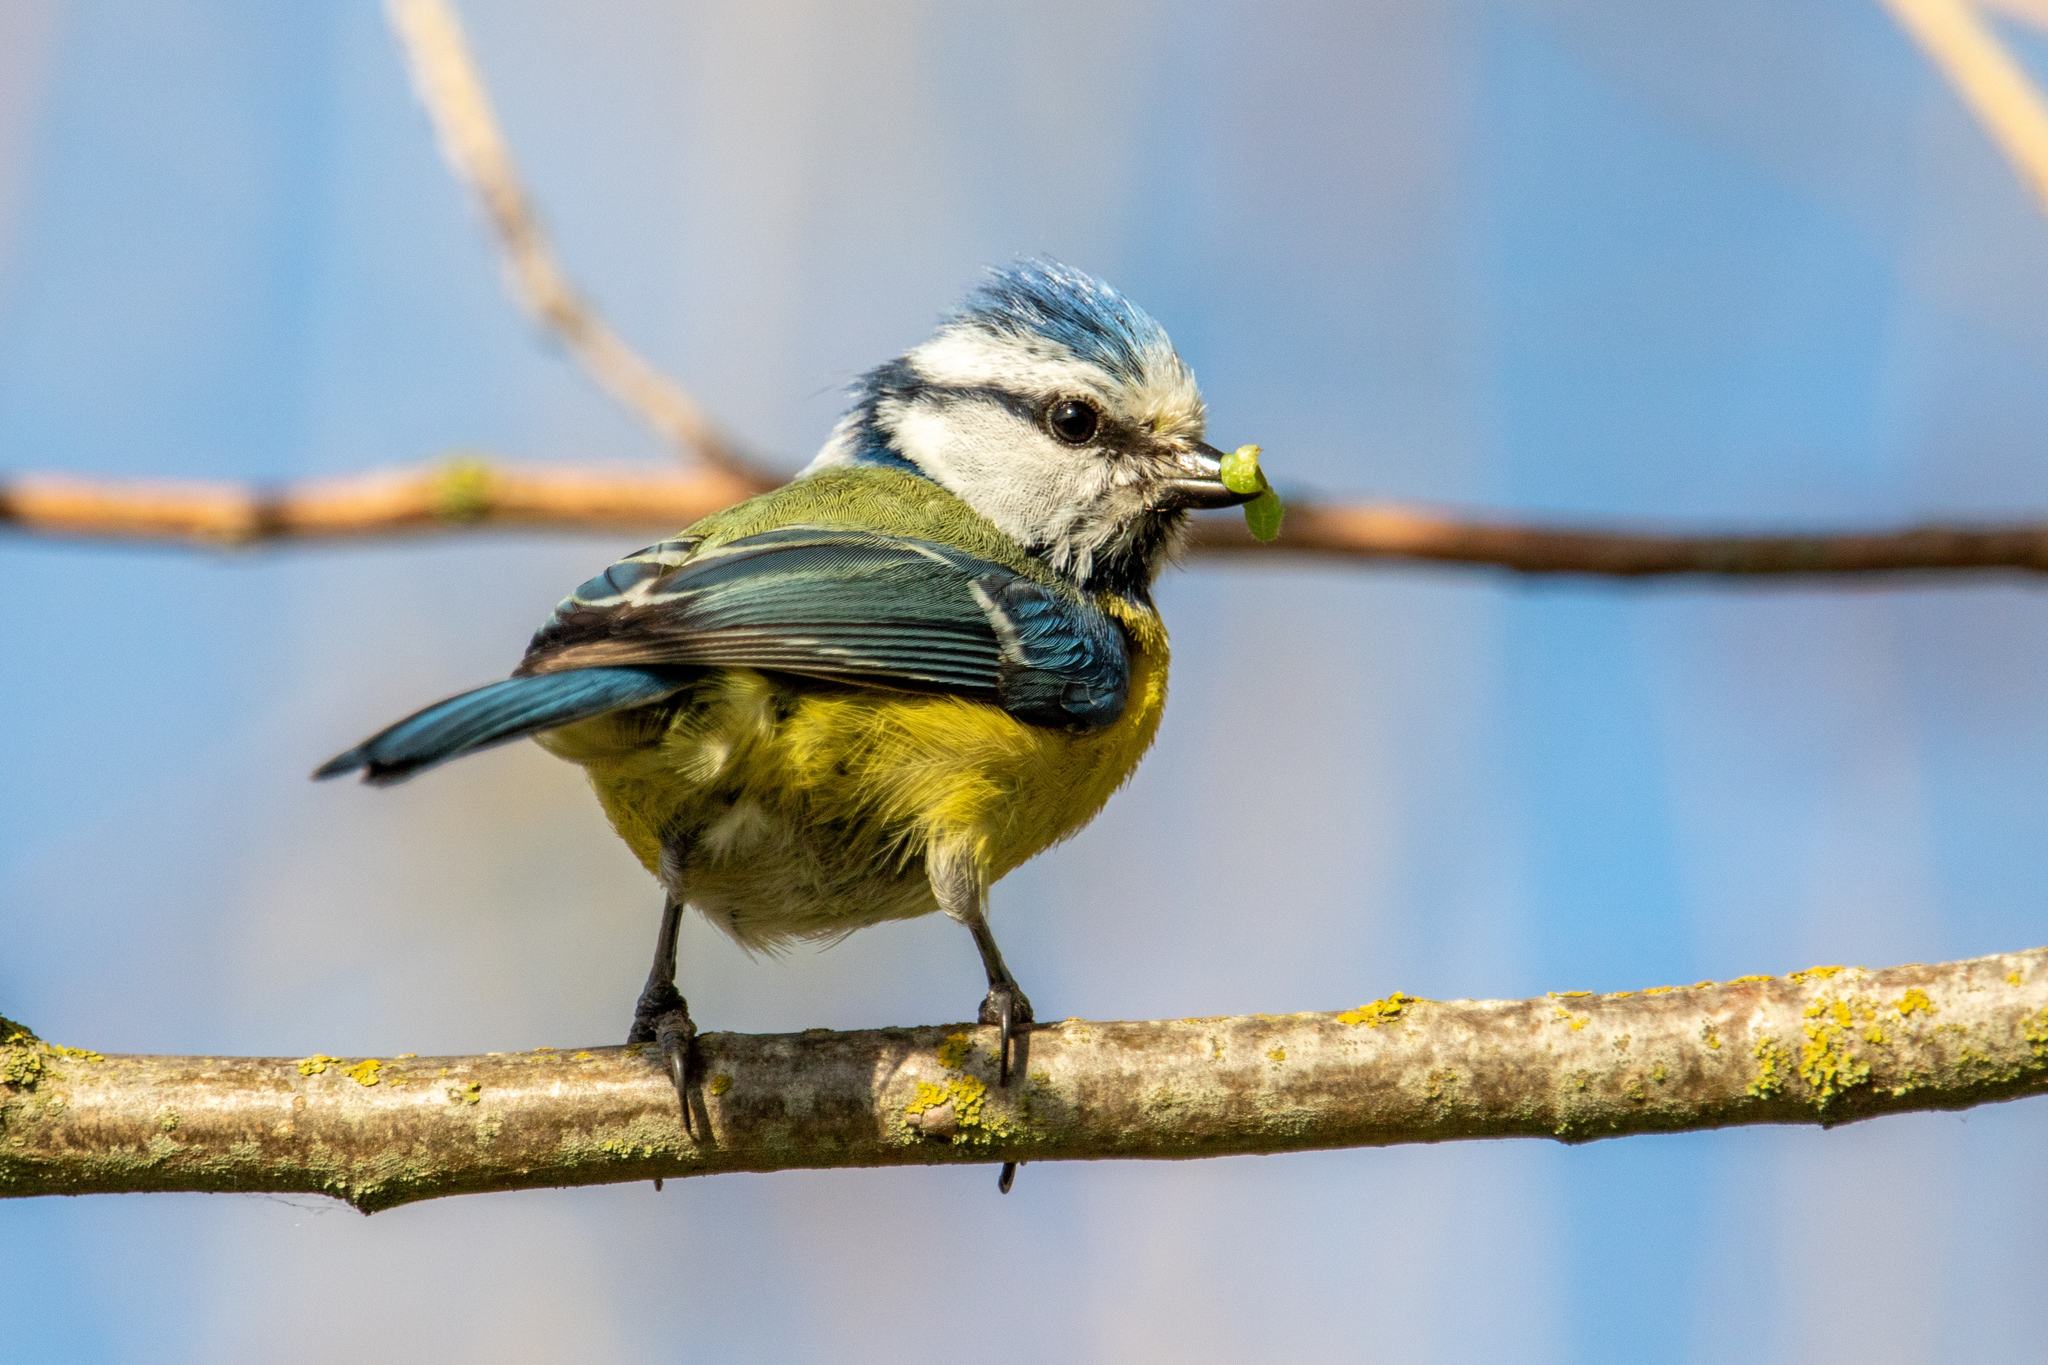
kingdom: Animalia
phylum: Chordata
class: Aves
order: Passeriformes
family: Paridae
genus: Cyanistes
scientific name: Cyanistes caeruleus
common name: Eurasian blue tit
